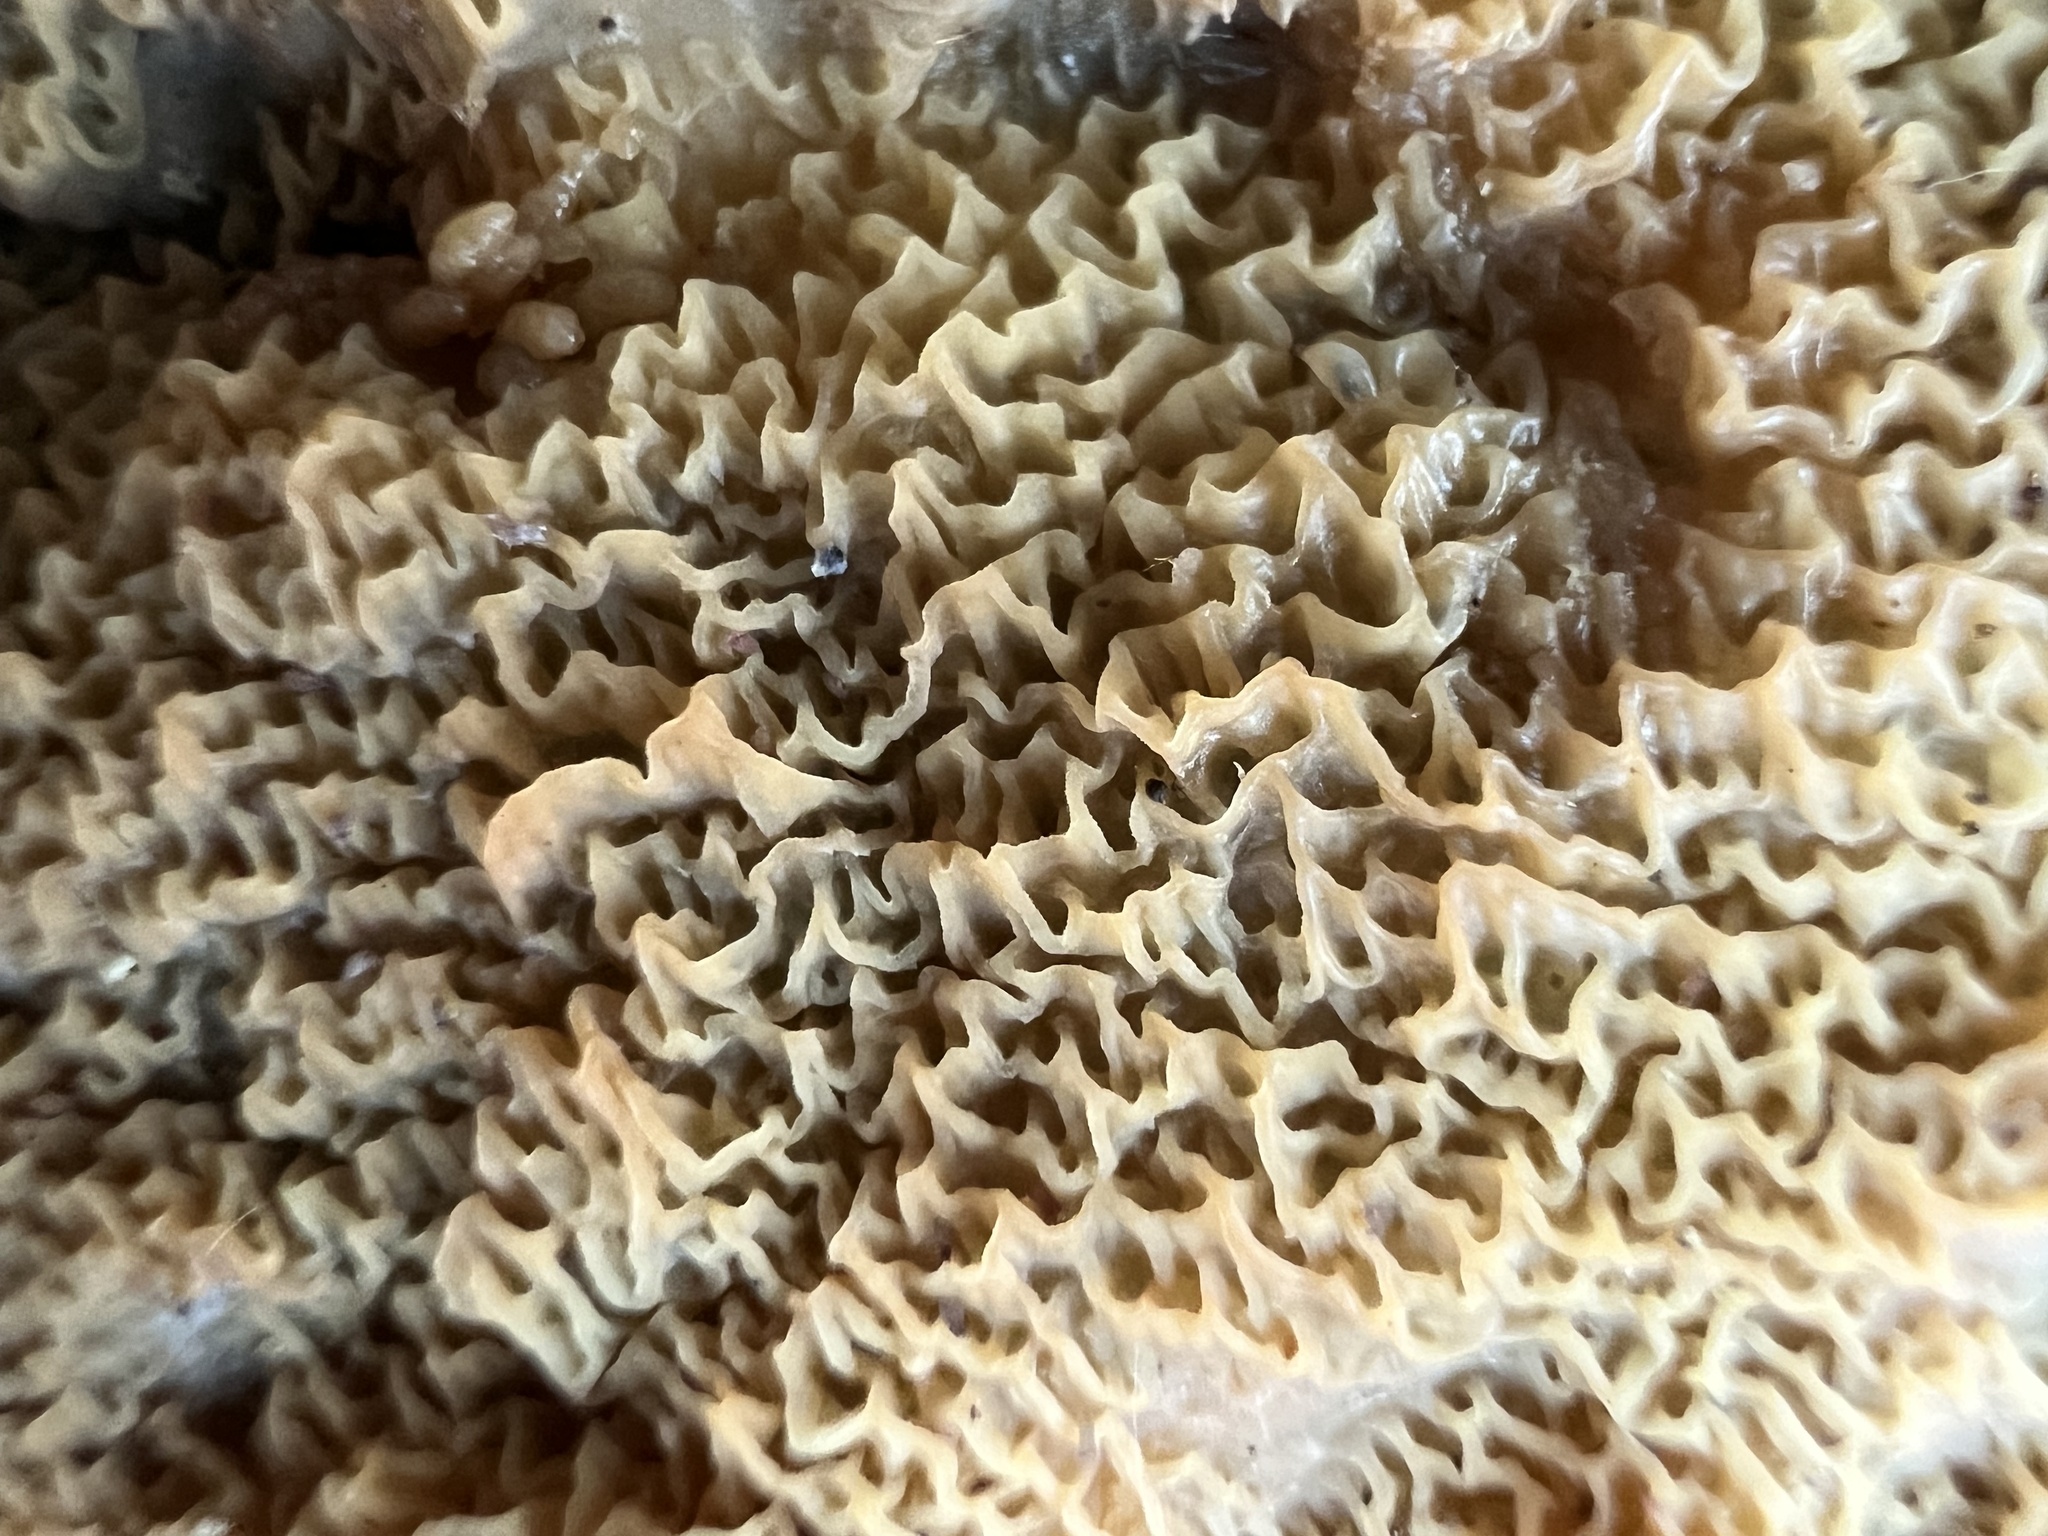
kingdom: Fungi
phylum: Basidiomycota
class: Agaricomycetes
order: Polyporales
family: Meruliaceae
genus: Phlebia
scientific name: Phlebia tremellosa
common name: Jelly rot
